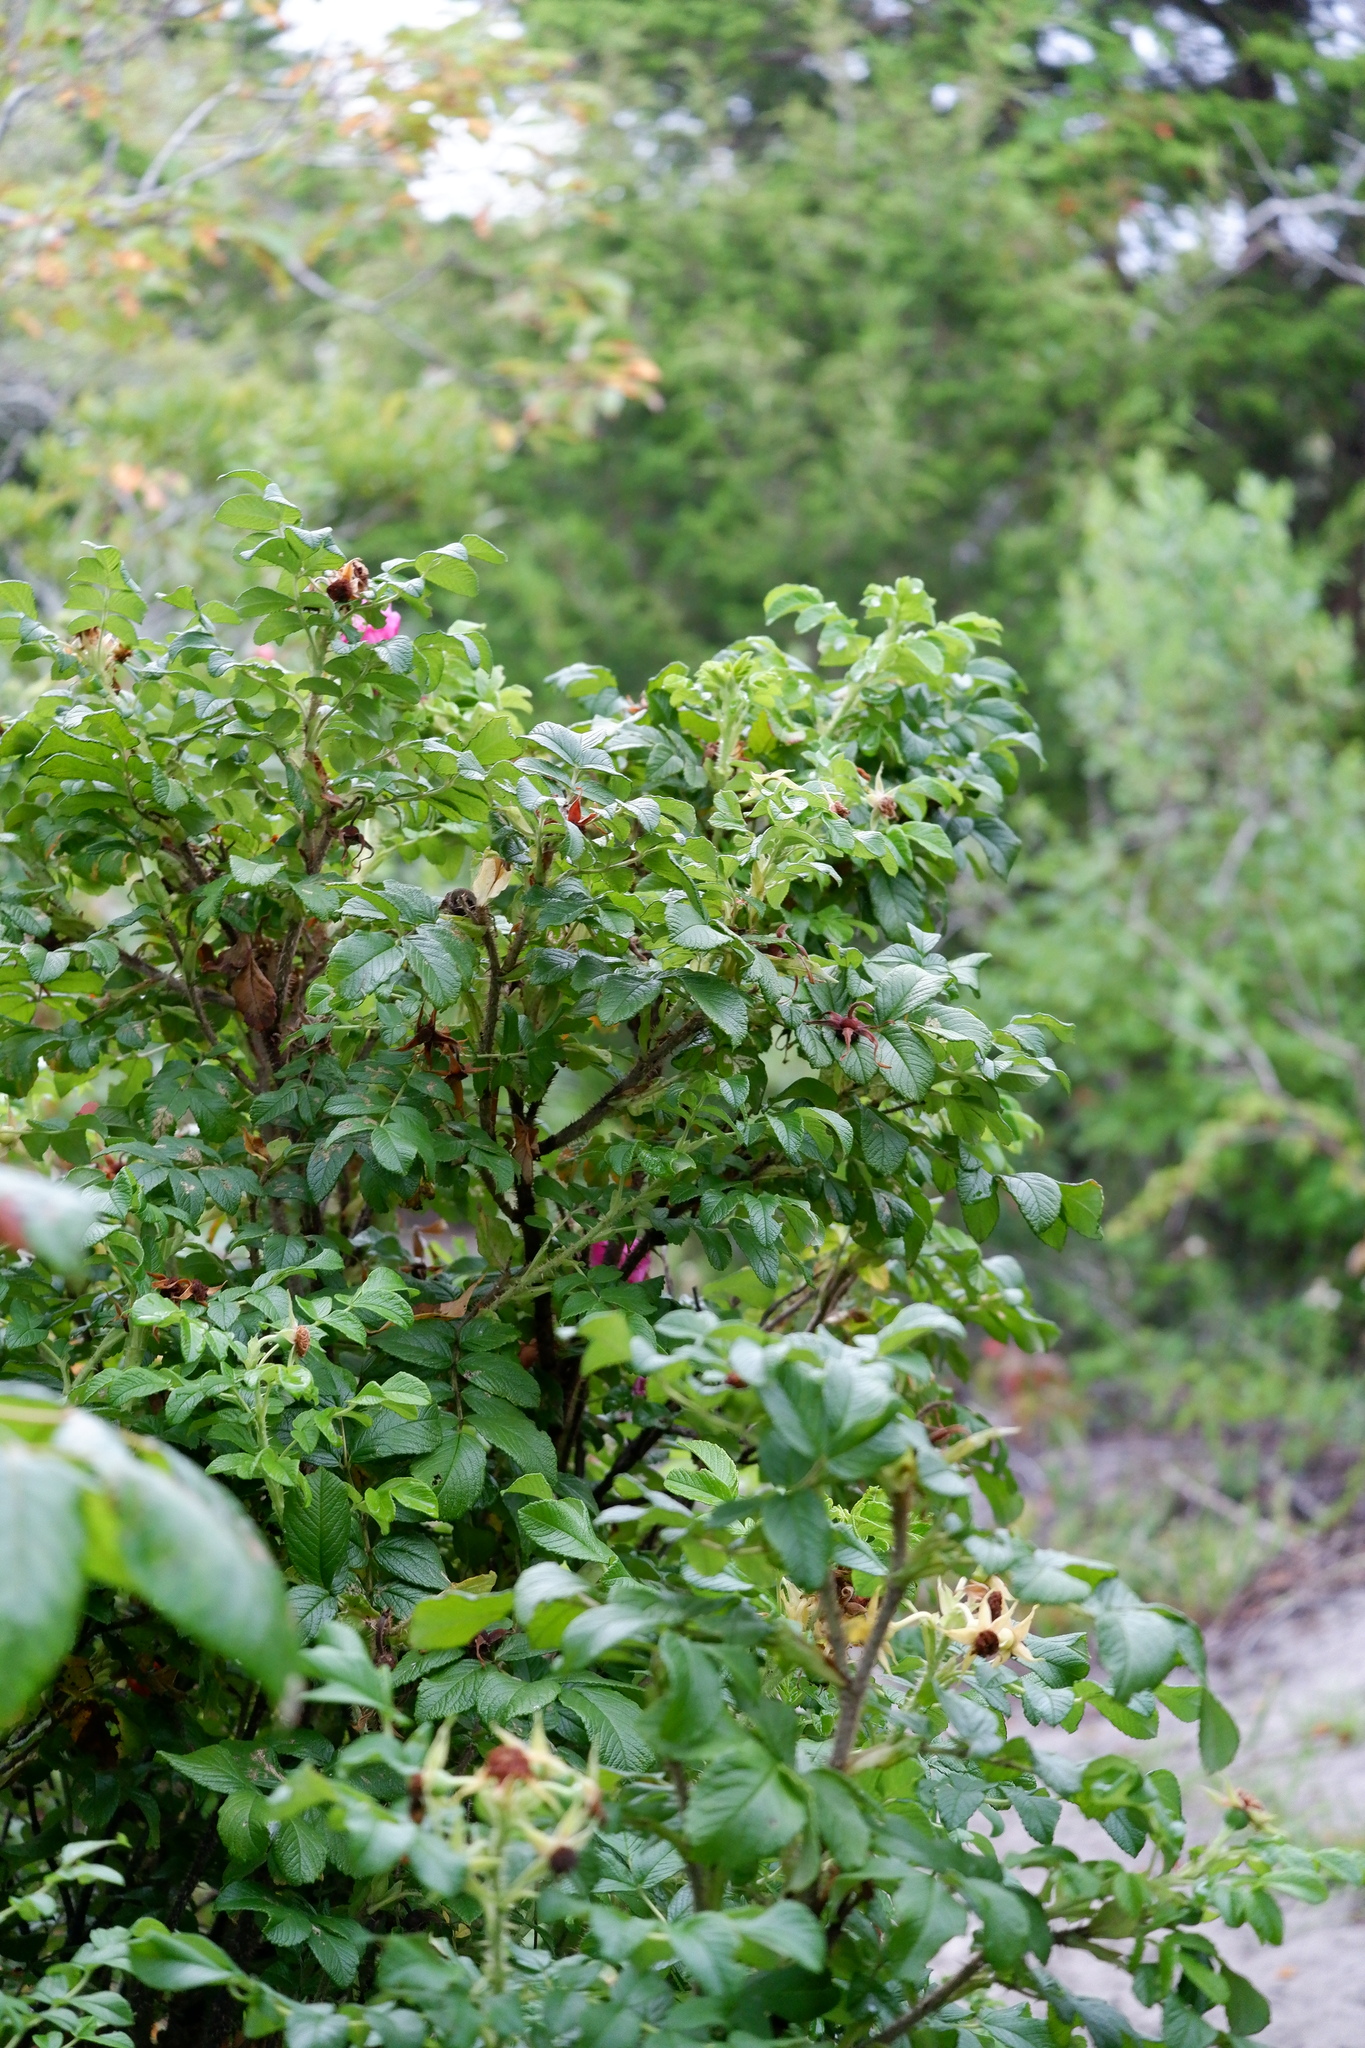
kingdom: Plantae
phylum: Tracheophyta
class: Magnoliopsida
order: Rosales
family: Rosaceae
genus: Rosa
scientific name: Rosa rugosa
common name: Japanese rose
